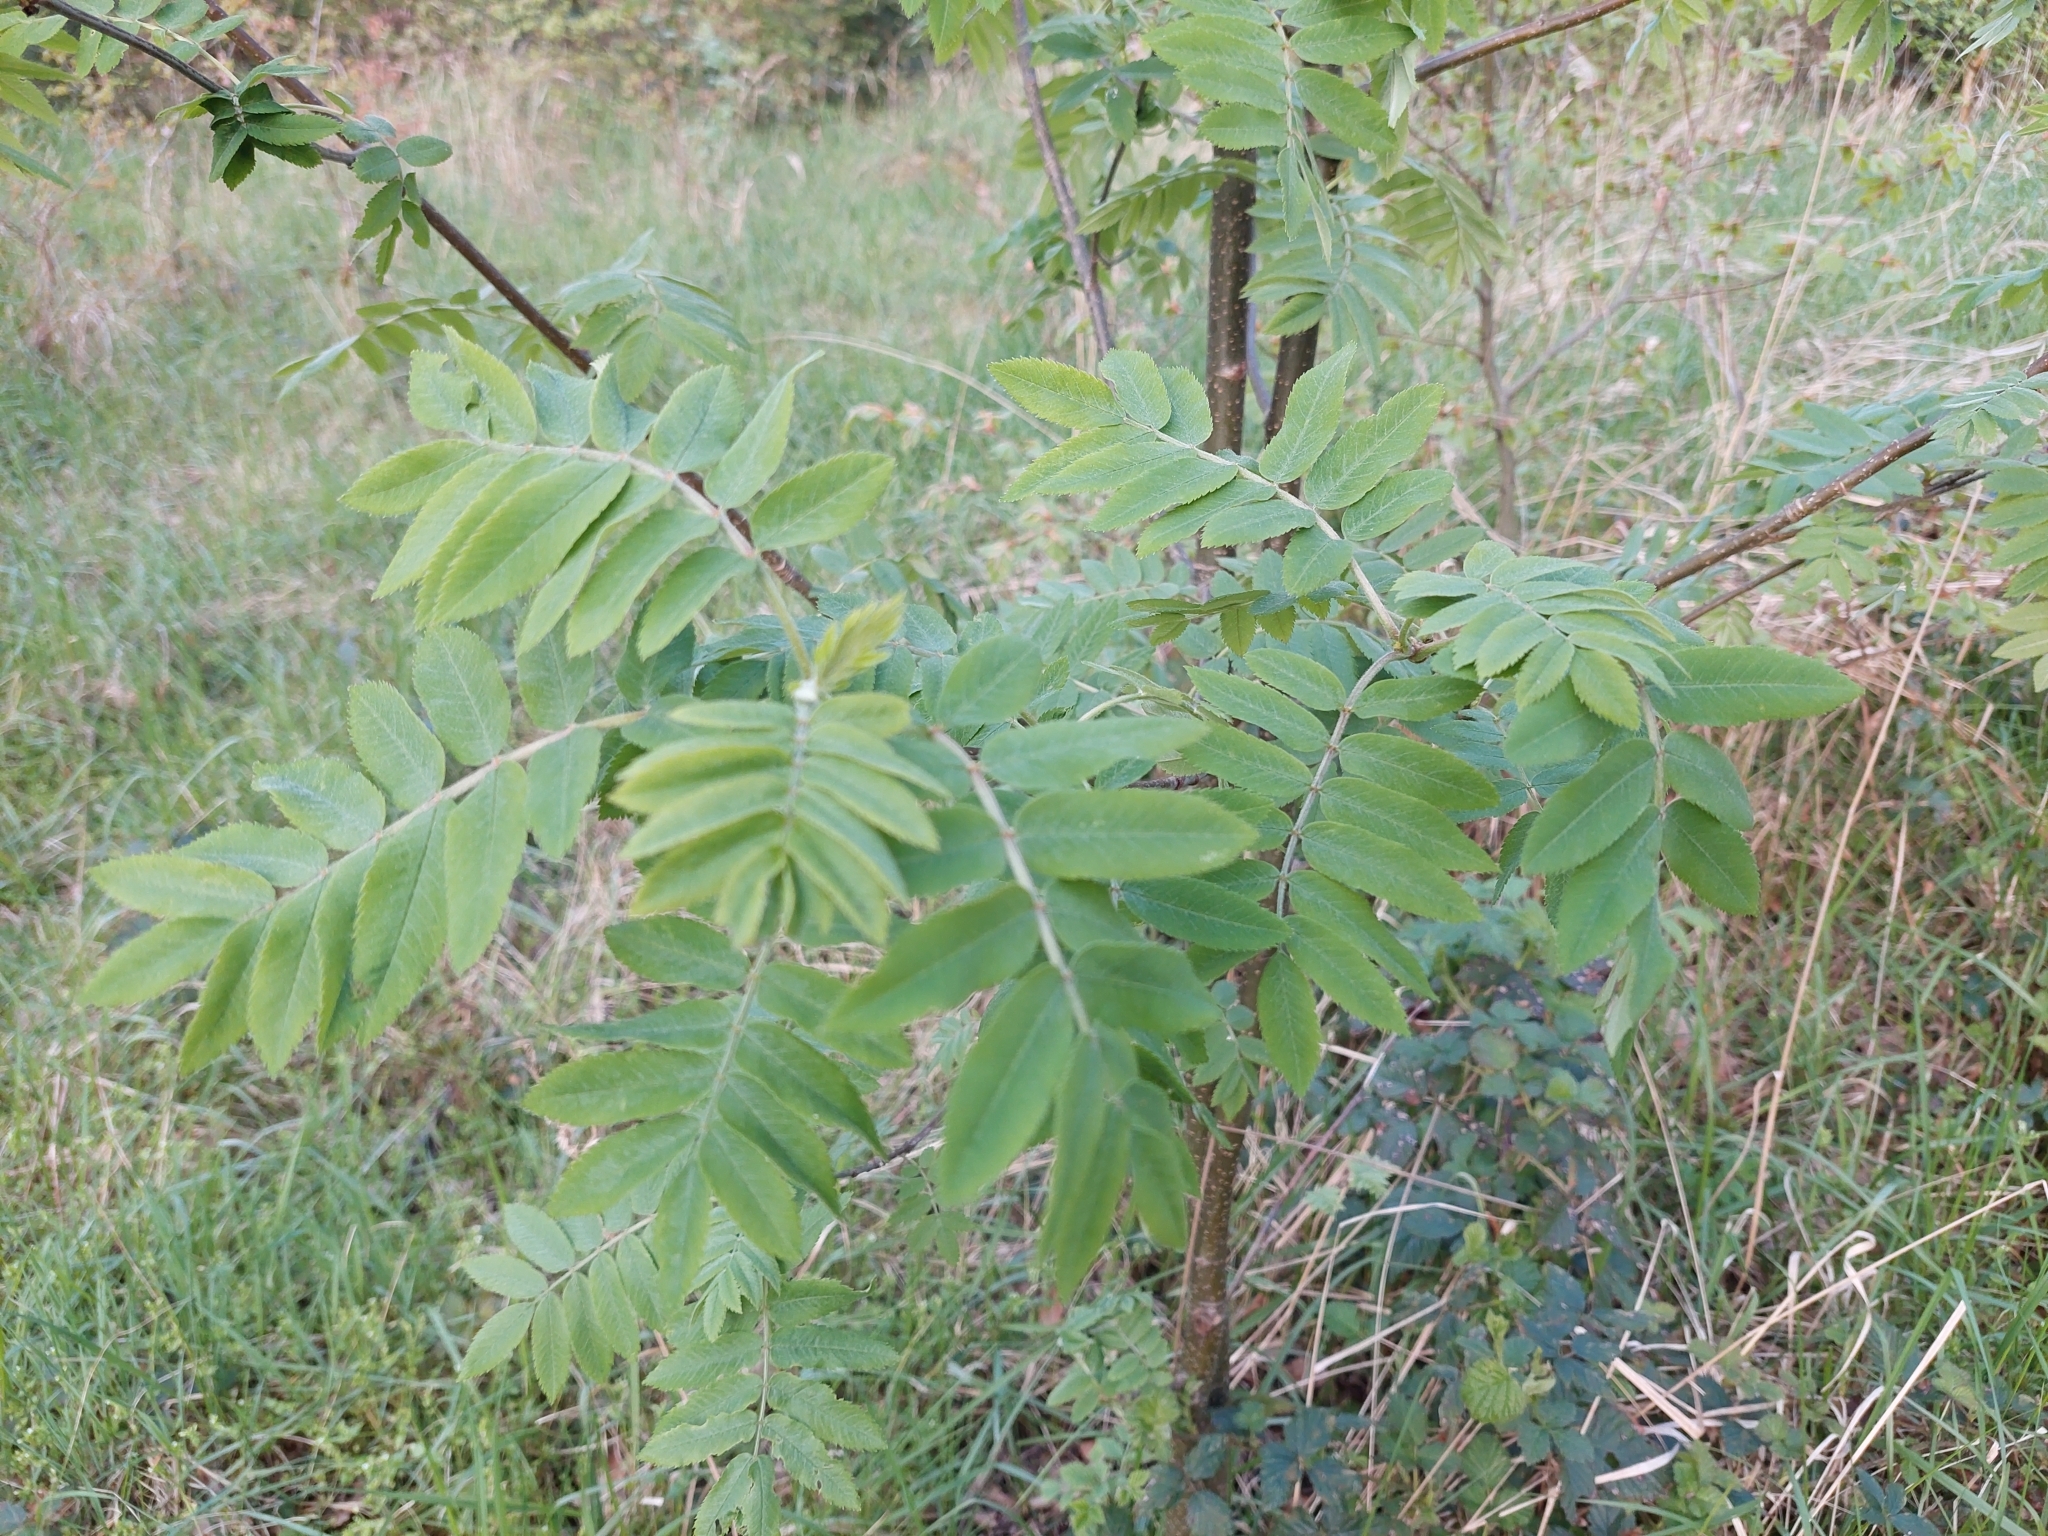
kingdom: Plantae
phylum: Tracheophyta
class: Magnoliopsida
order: Rosales
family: Rosaceae
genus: Sorbus
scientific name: Sorbus aucuparia
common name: Rowan
